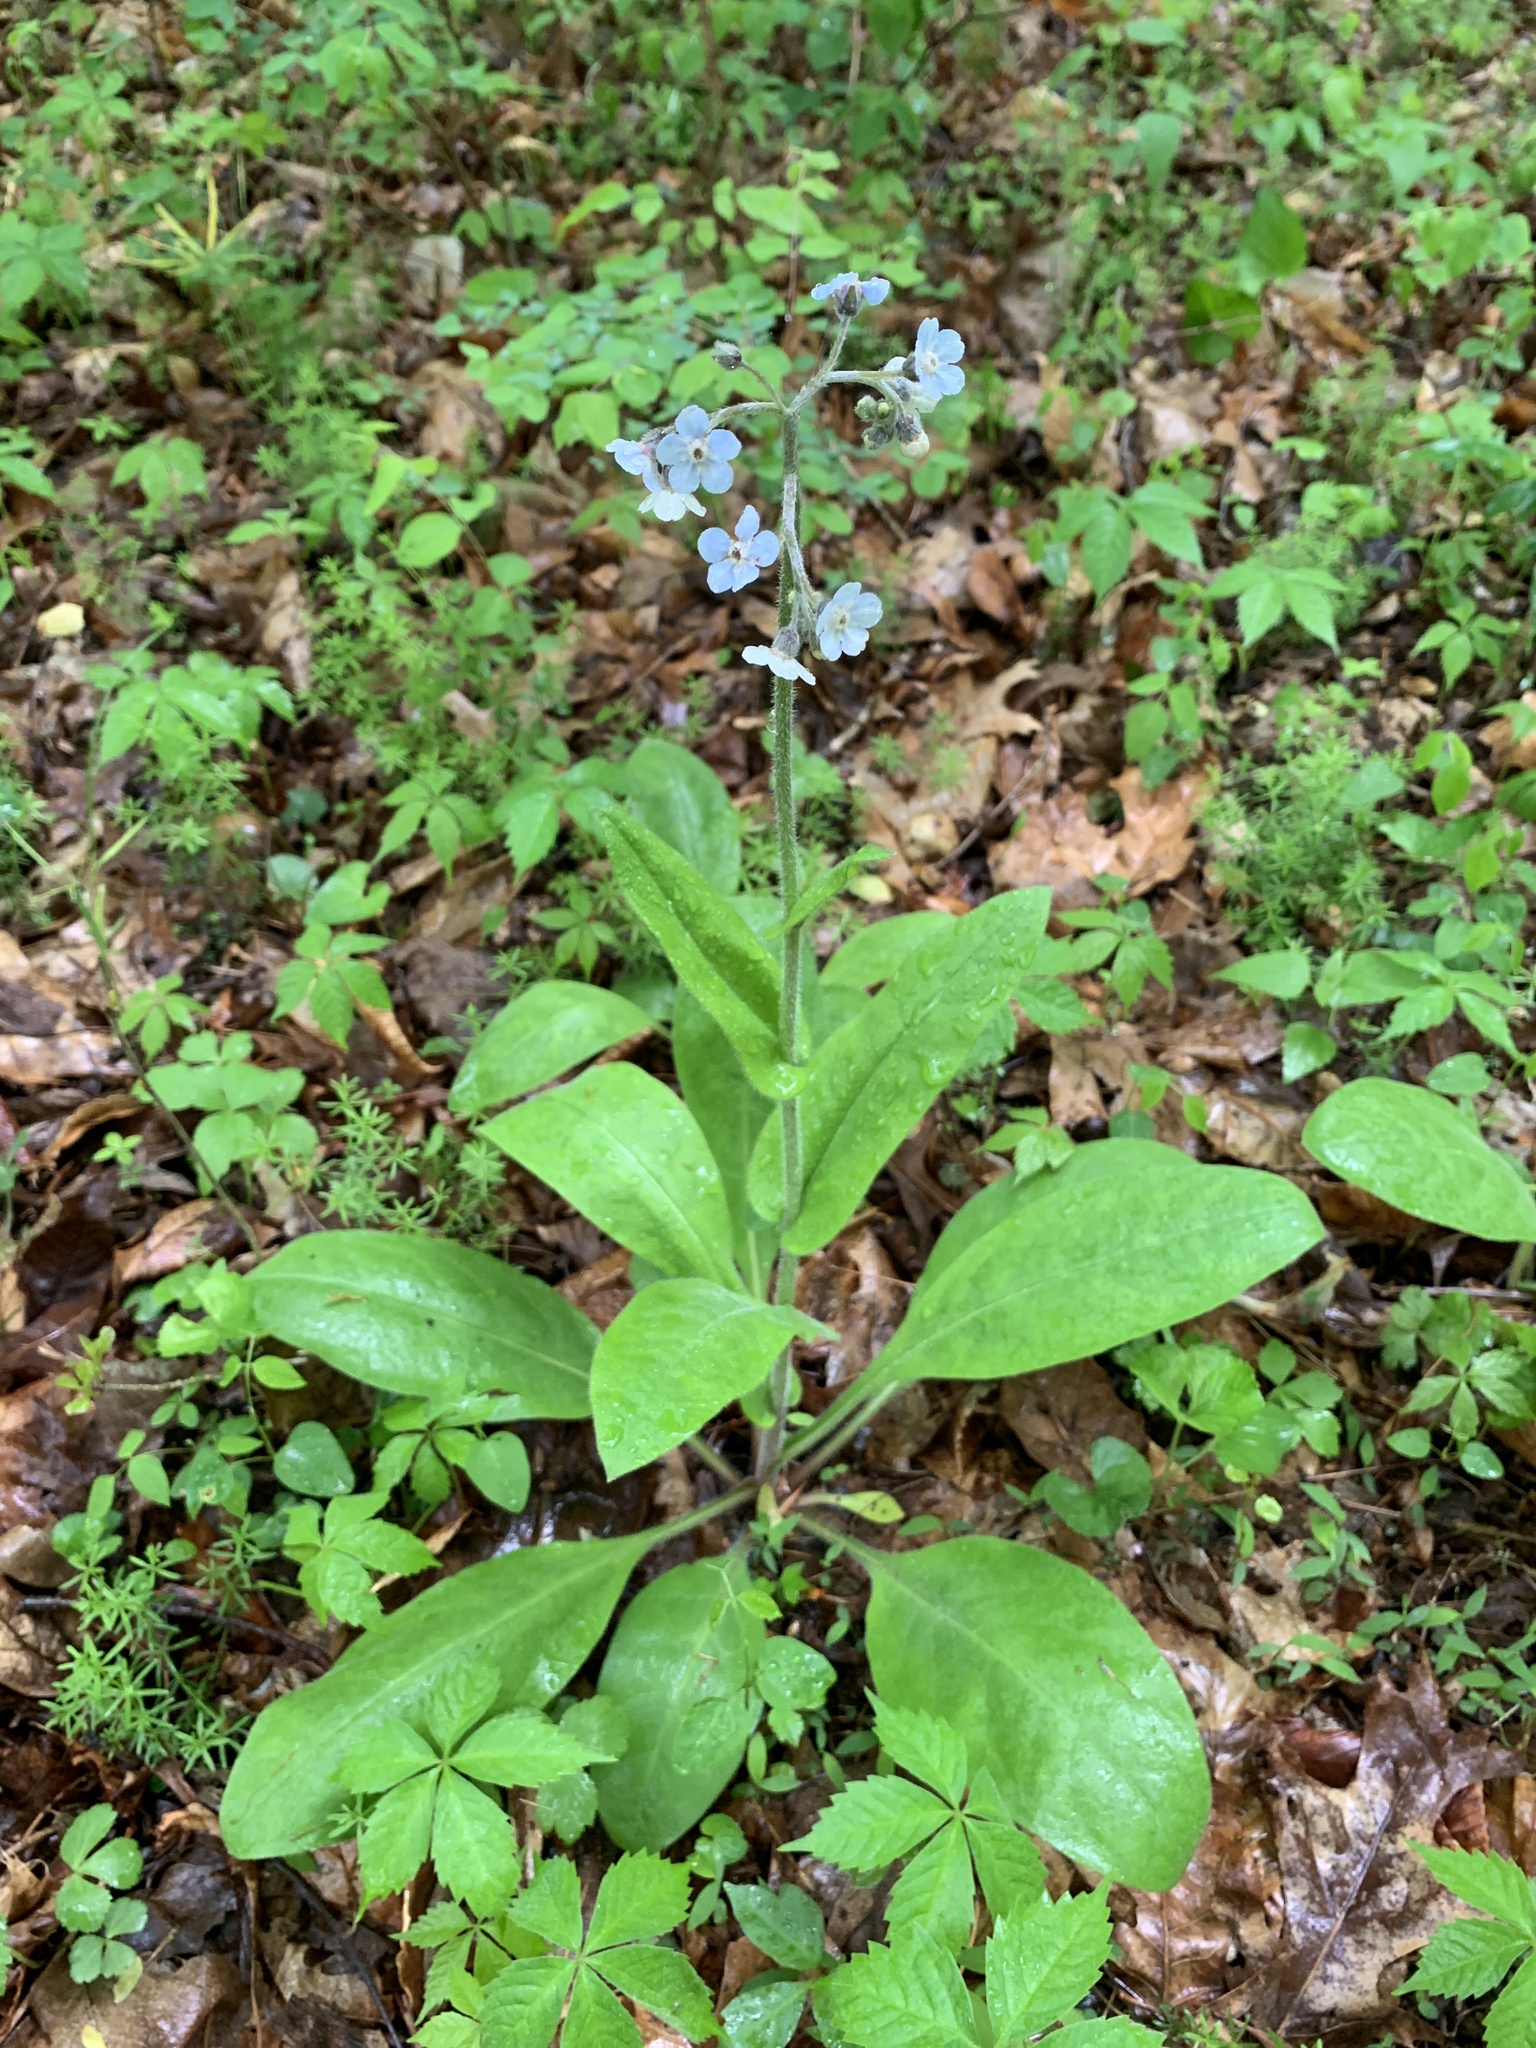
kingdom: Plantae
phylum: Tracheophyta
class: Magnoliopsida
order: Boraginales
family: Boraginaceae
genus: Andersonglossum
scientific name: Andersonglossum virginianum
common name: Wild comfrey
